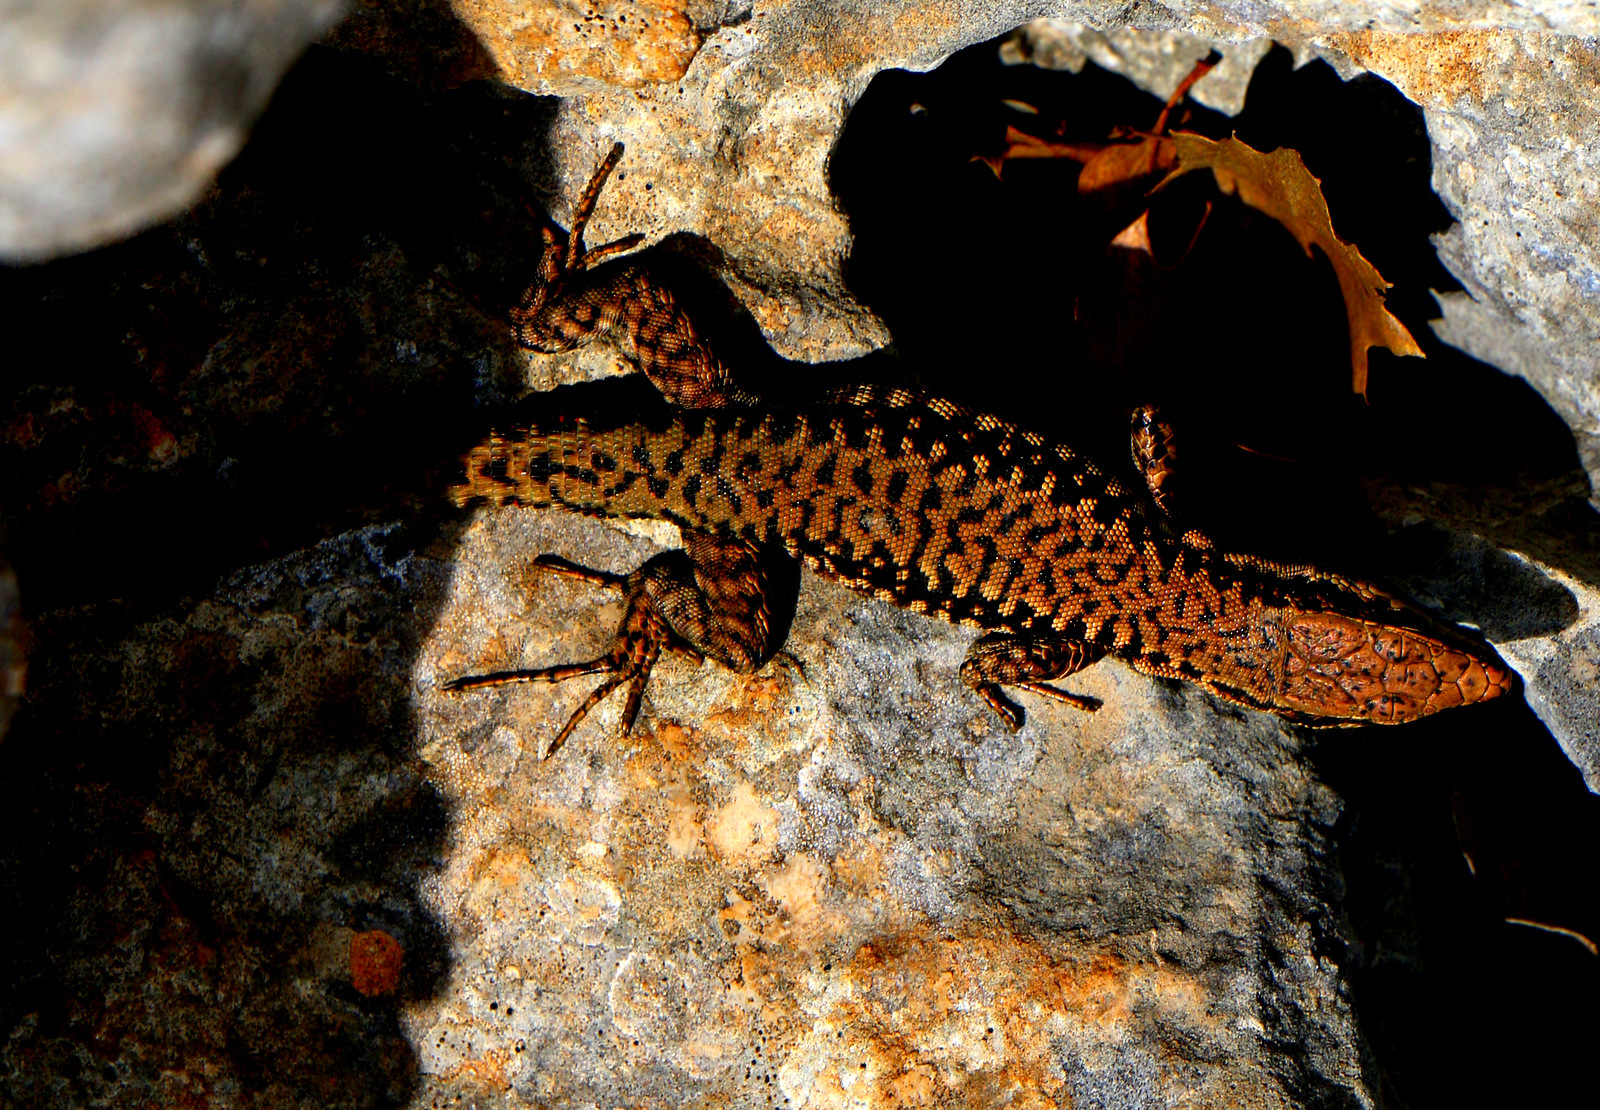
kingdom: Animalia
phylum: Chordata
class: Squamata
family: Lacertidae
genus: Phoenicolacerta
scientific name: Phoenicolacerta kulzeri
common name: Kulzer’s rock lizard
